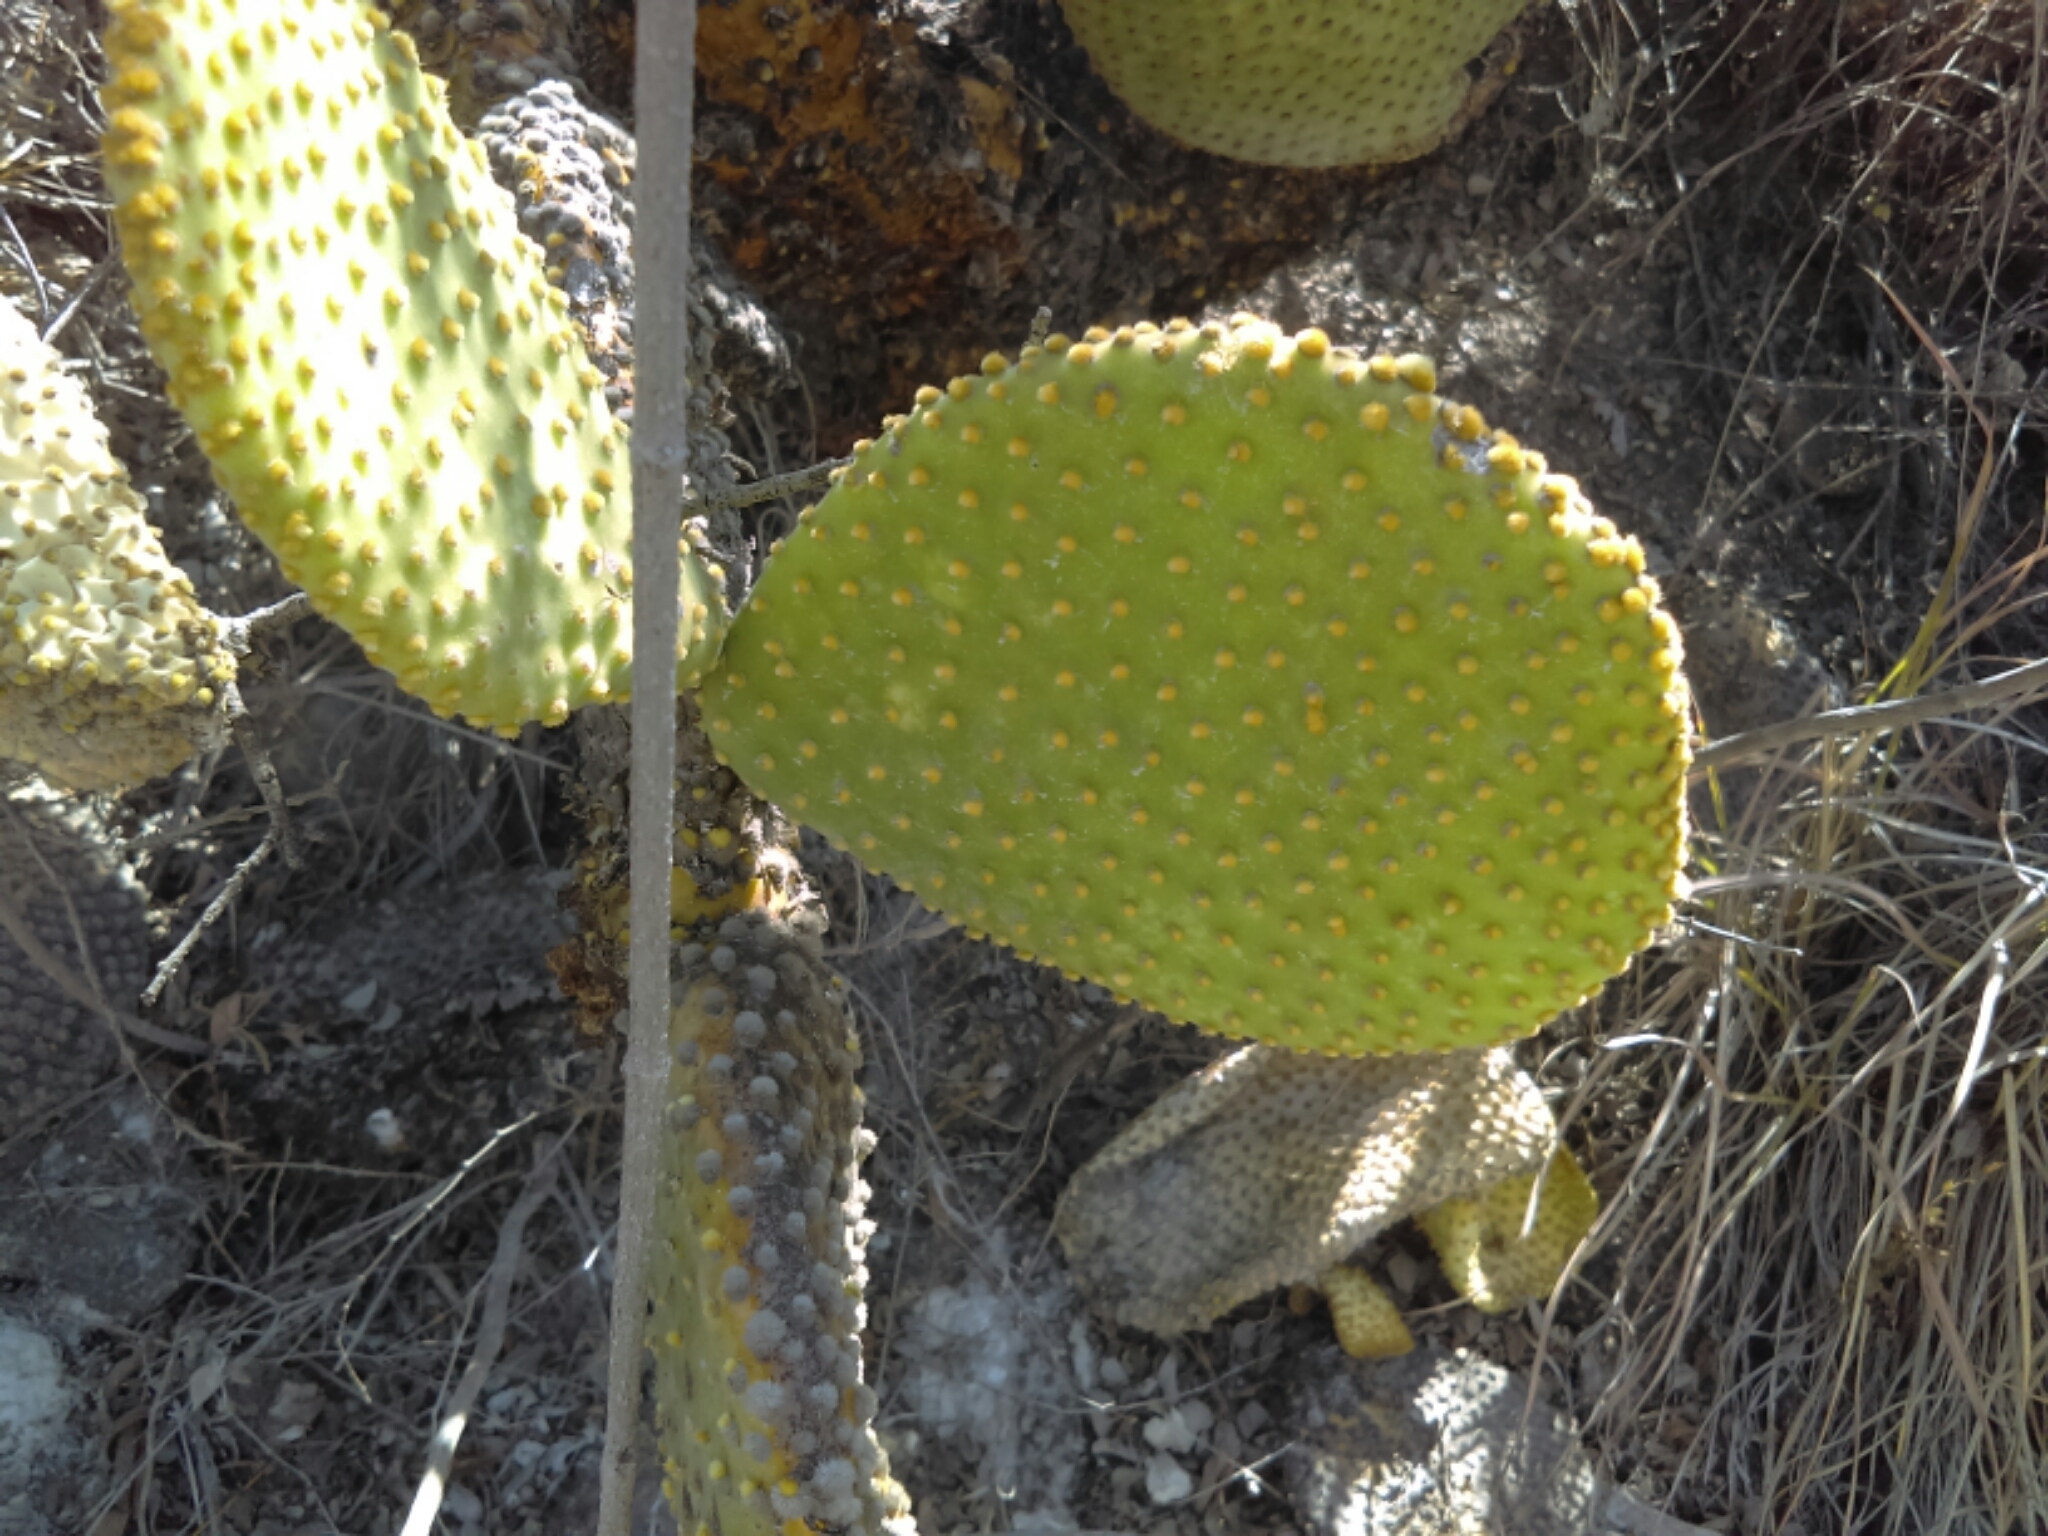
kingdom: Plantae
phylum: Tracheophyta
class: Magnoliopsida
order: Caryophyllales
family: Cactaceae
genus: Opuntia
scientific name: Opuntia microdasys
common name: Angel's-wings
